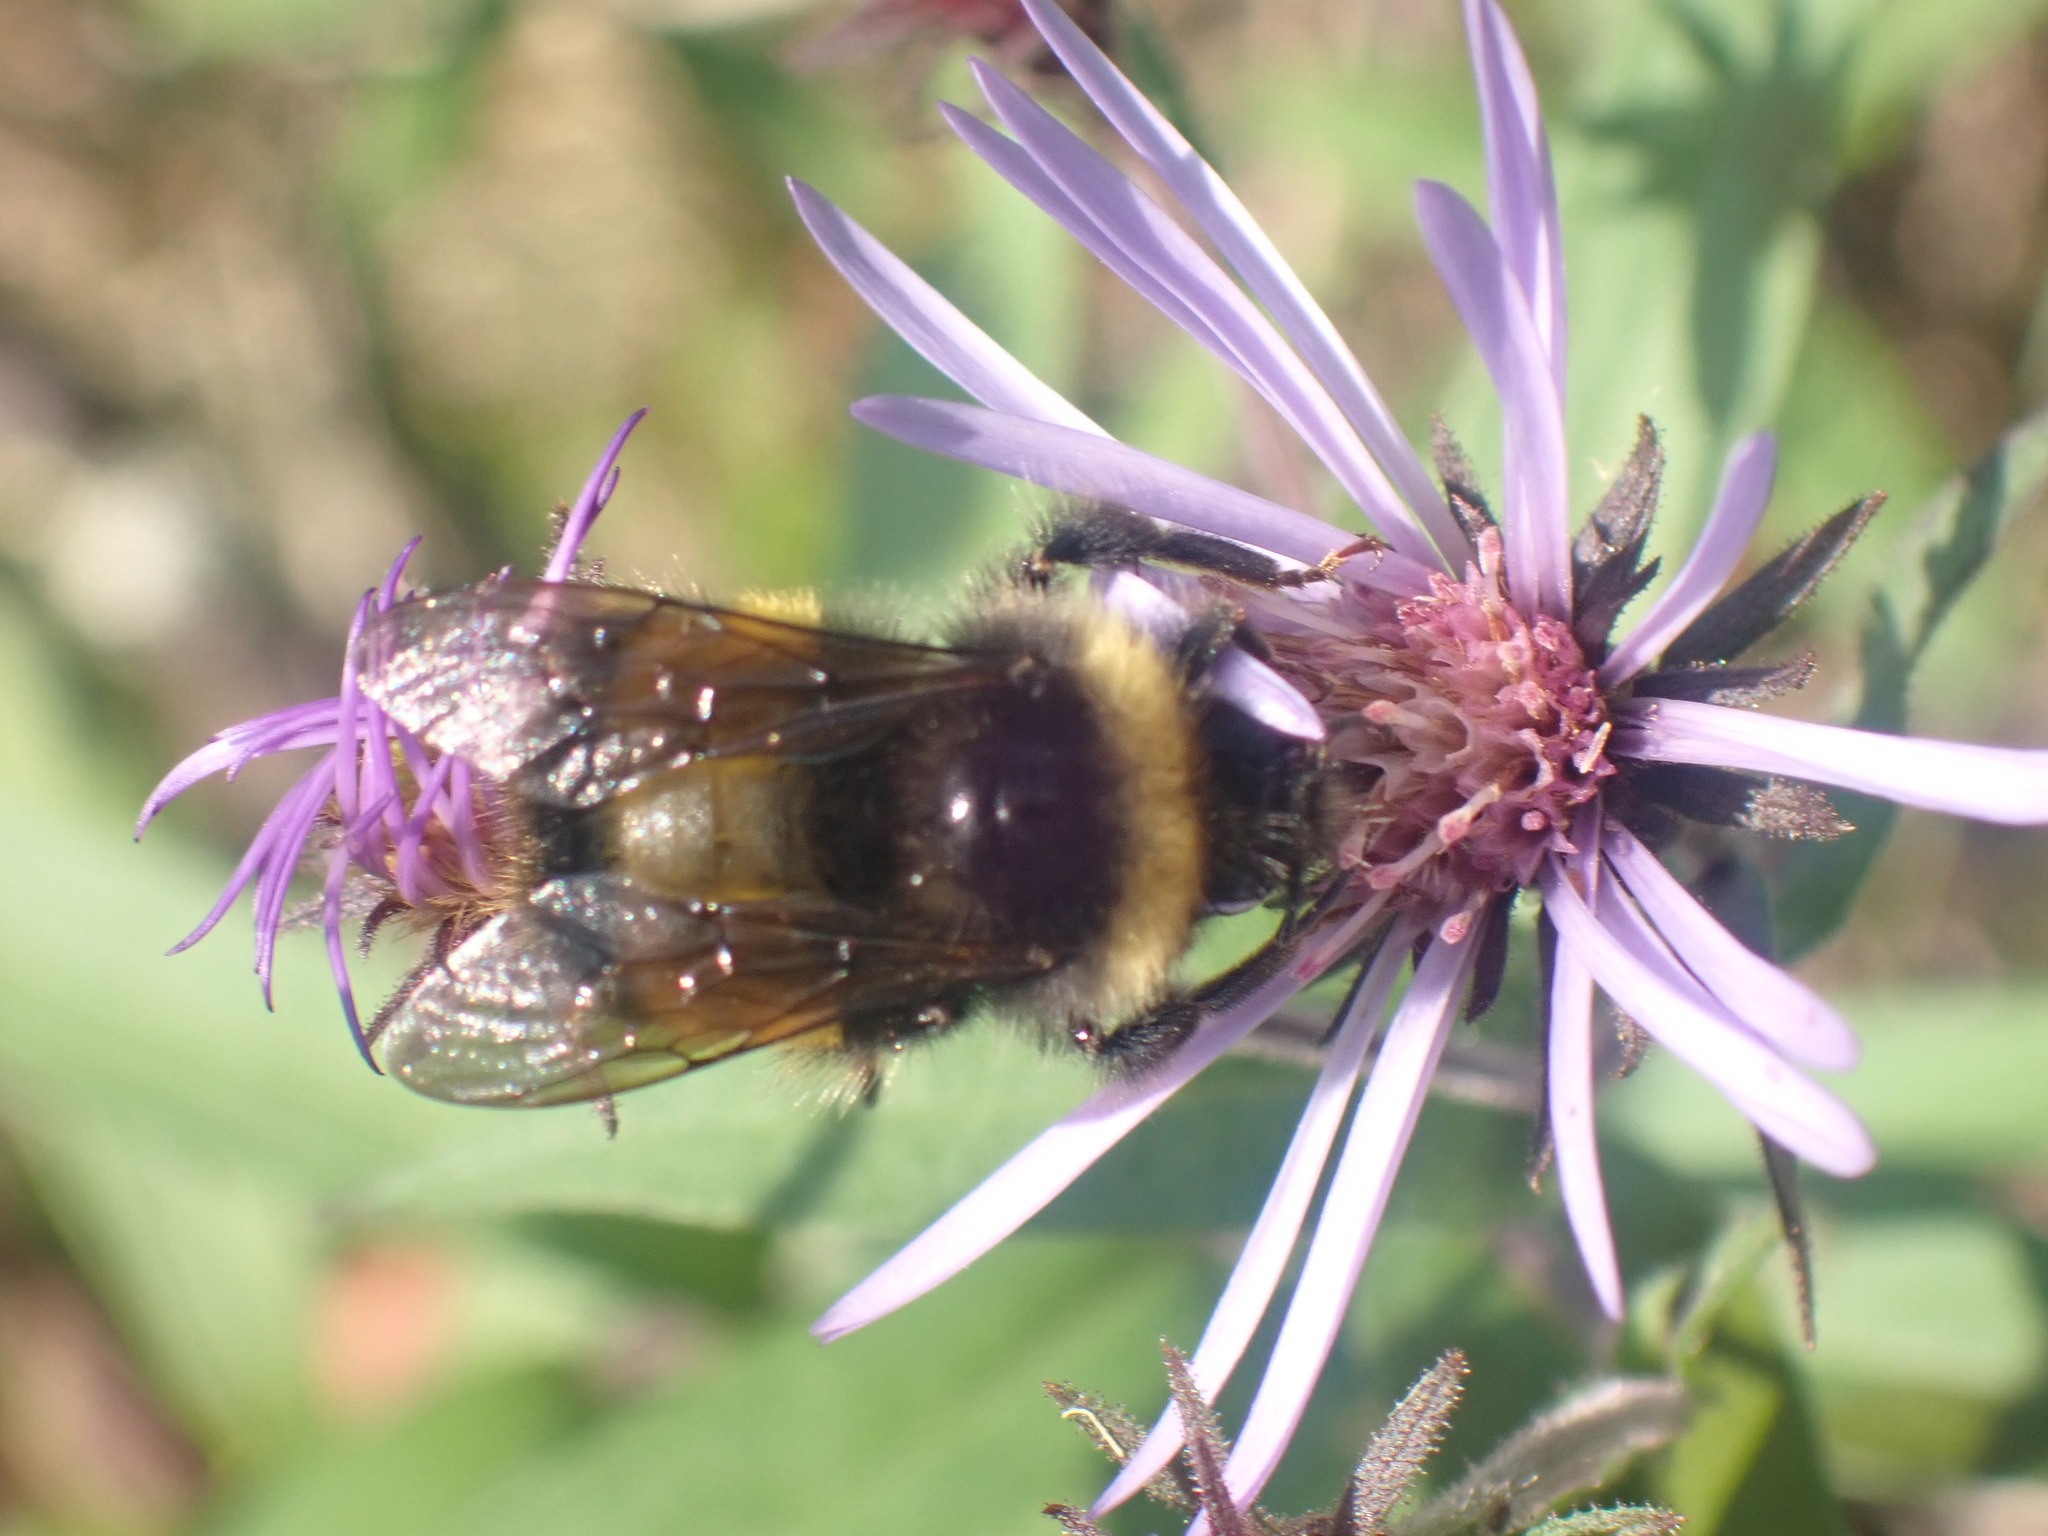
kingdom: Animalia
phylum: Arthropoda
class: Insecta
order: Hymenoptera
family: Apidae
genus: Bombus
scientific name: Bombus terricola
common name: Yellow-banded bumble bee
